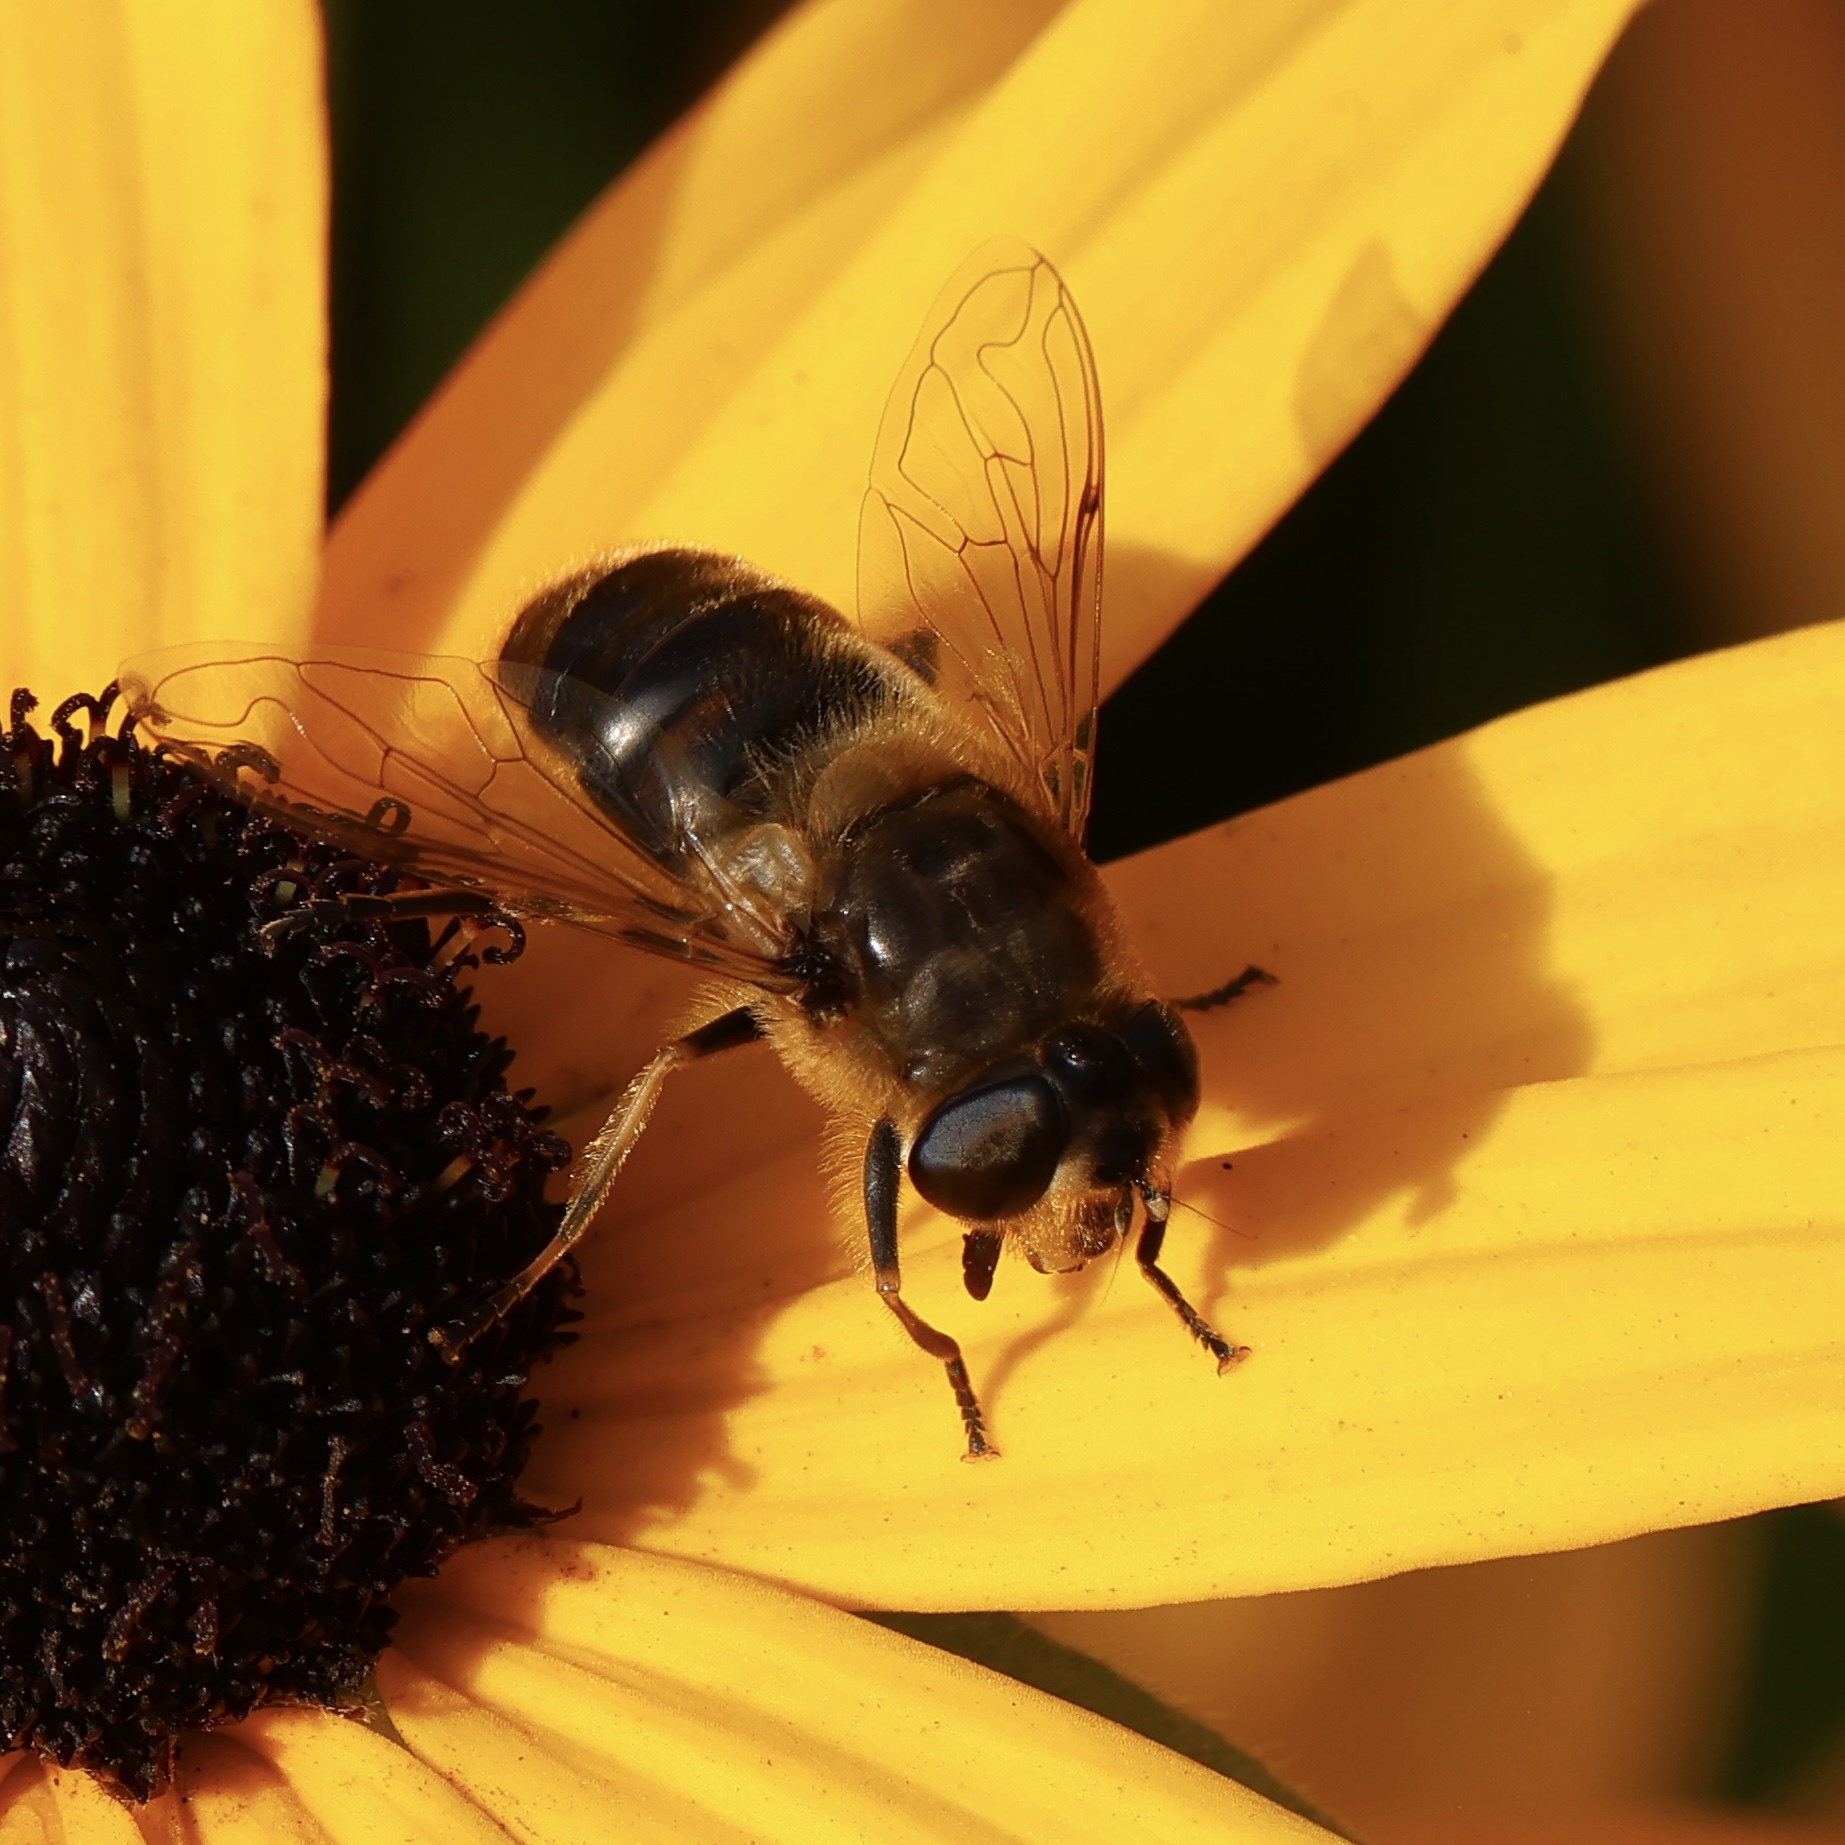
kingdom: Animalia
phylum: Arthropoda
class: Insecta
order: Diptera
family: Syrphidae
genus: Eristalis
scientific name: Eristalis tenax
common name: Drone fly
